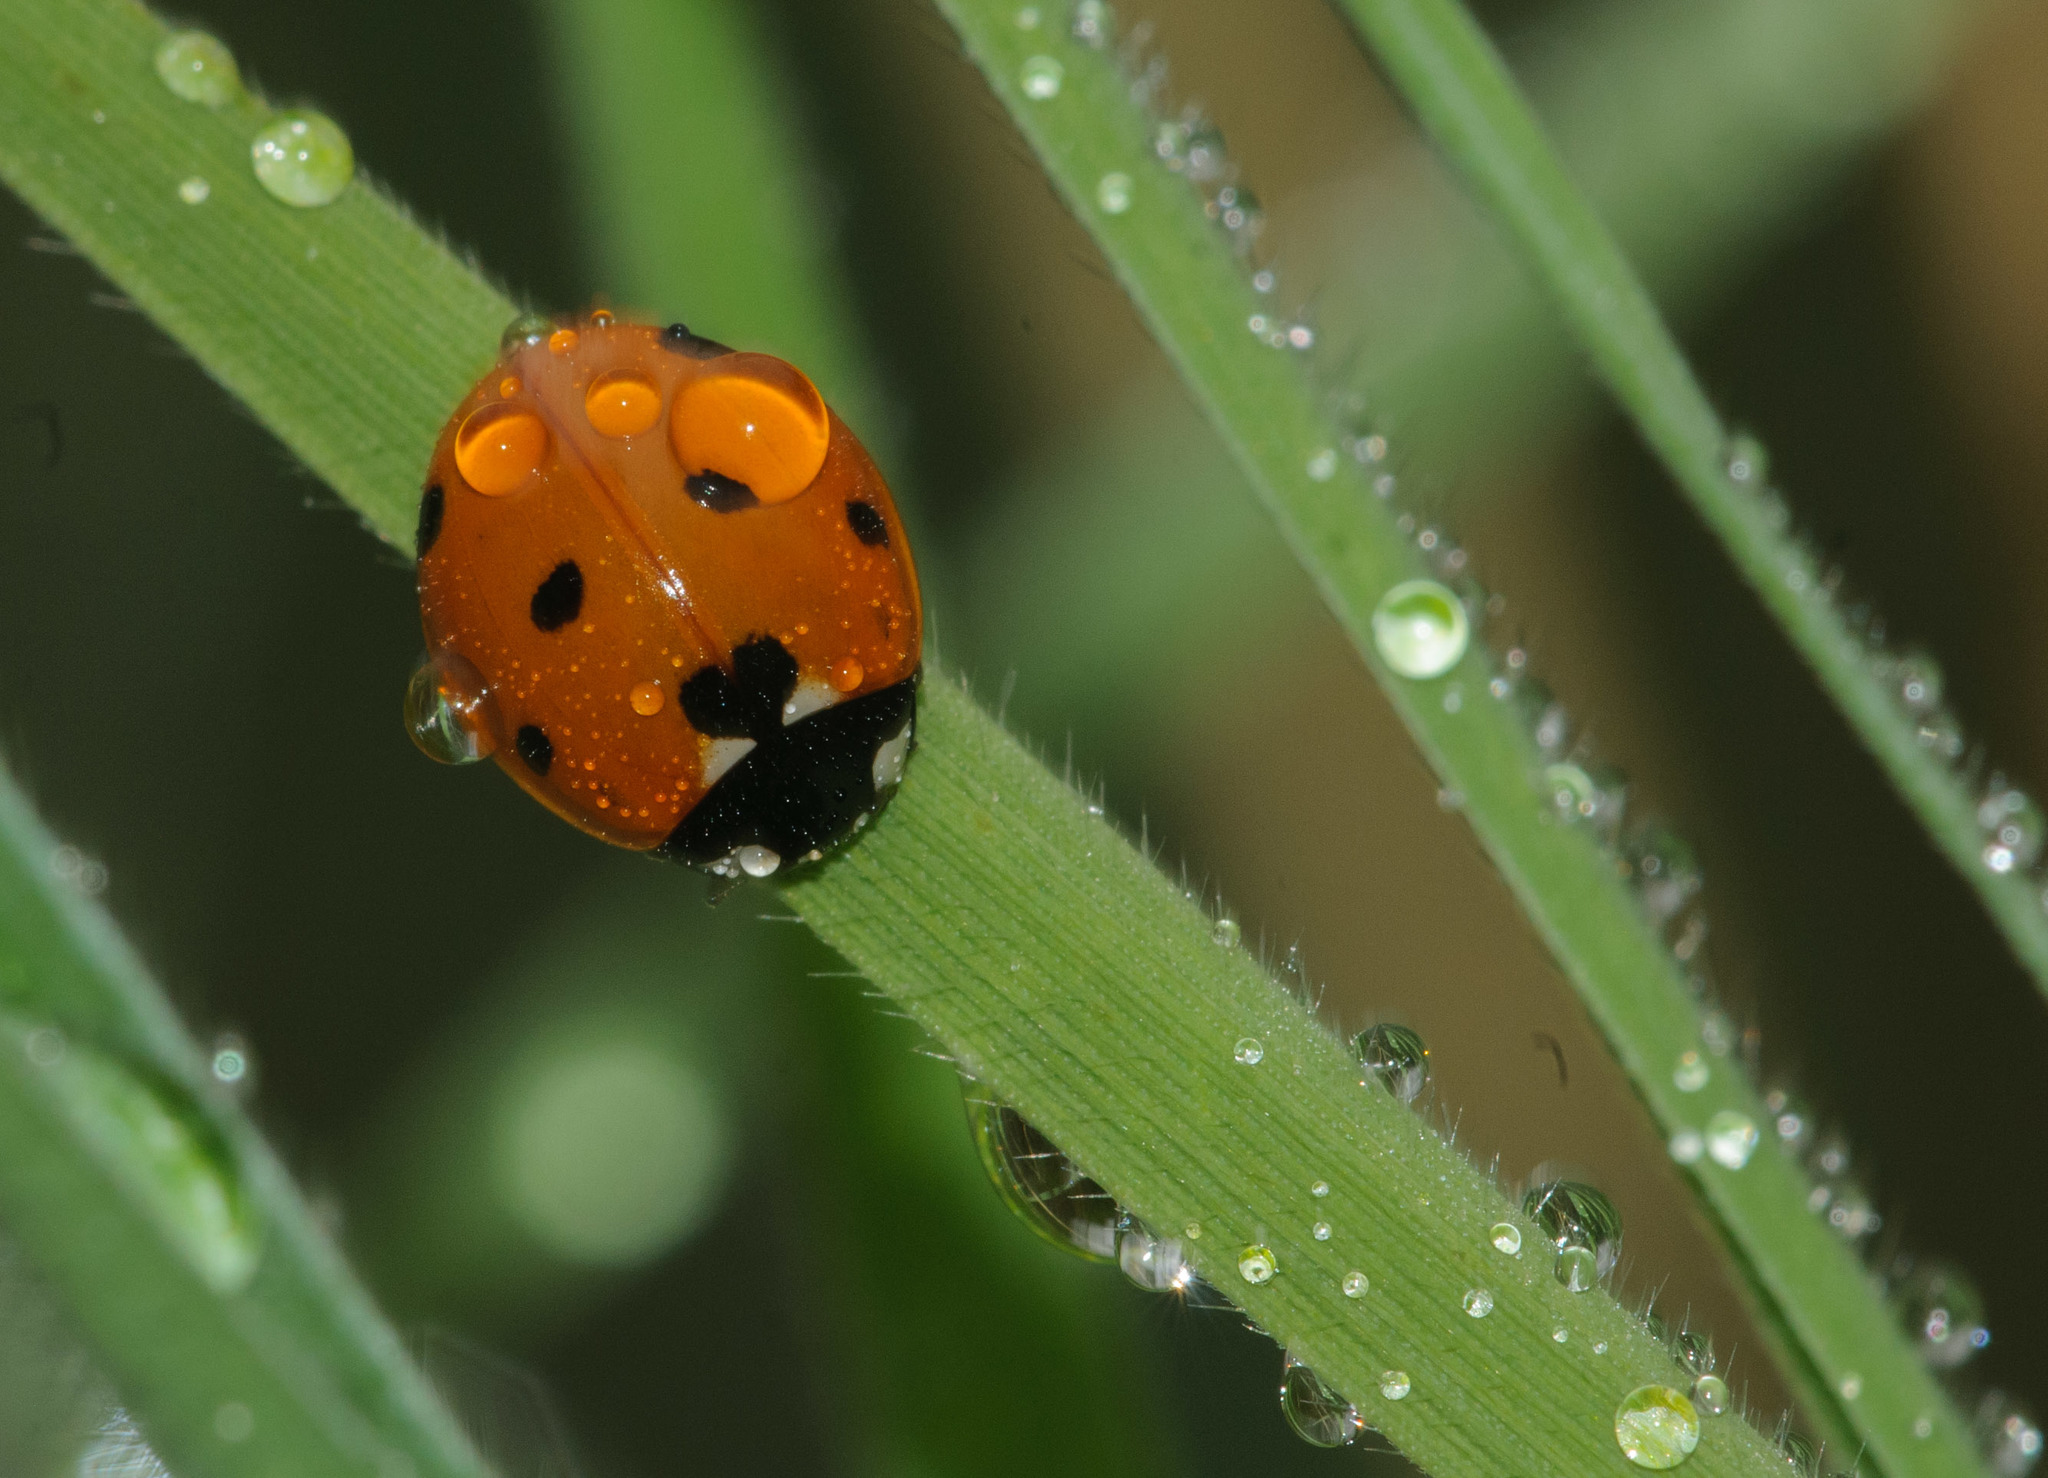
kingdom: Animalia
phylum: Arthropoda
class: Insecta
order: Coleoptera
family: Coccinellidae
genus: Coccinella
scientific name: Coccinella septempunctata
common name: Sevenspotted lady beetle
